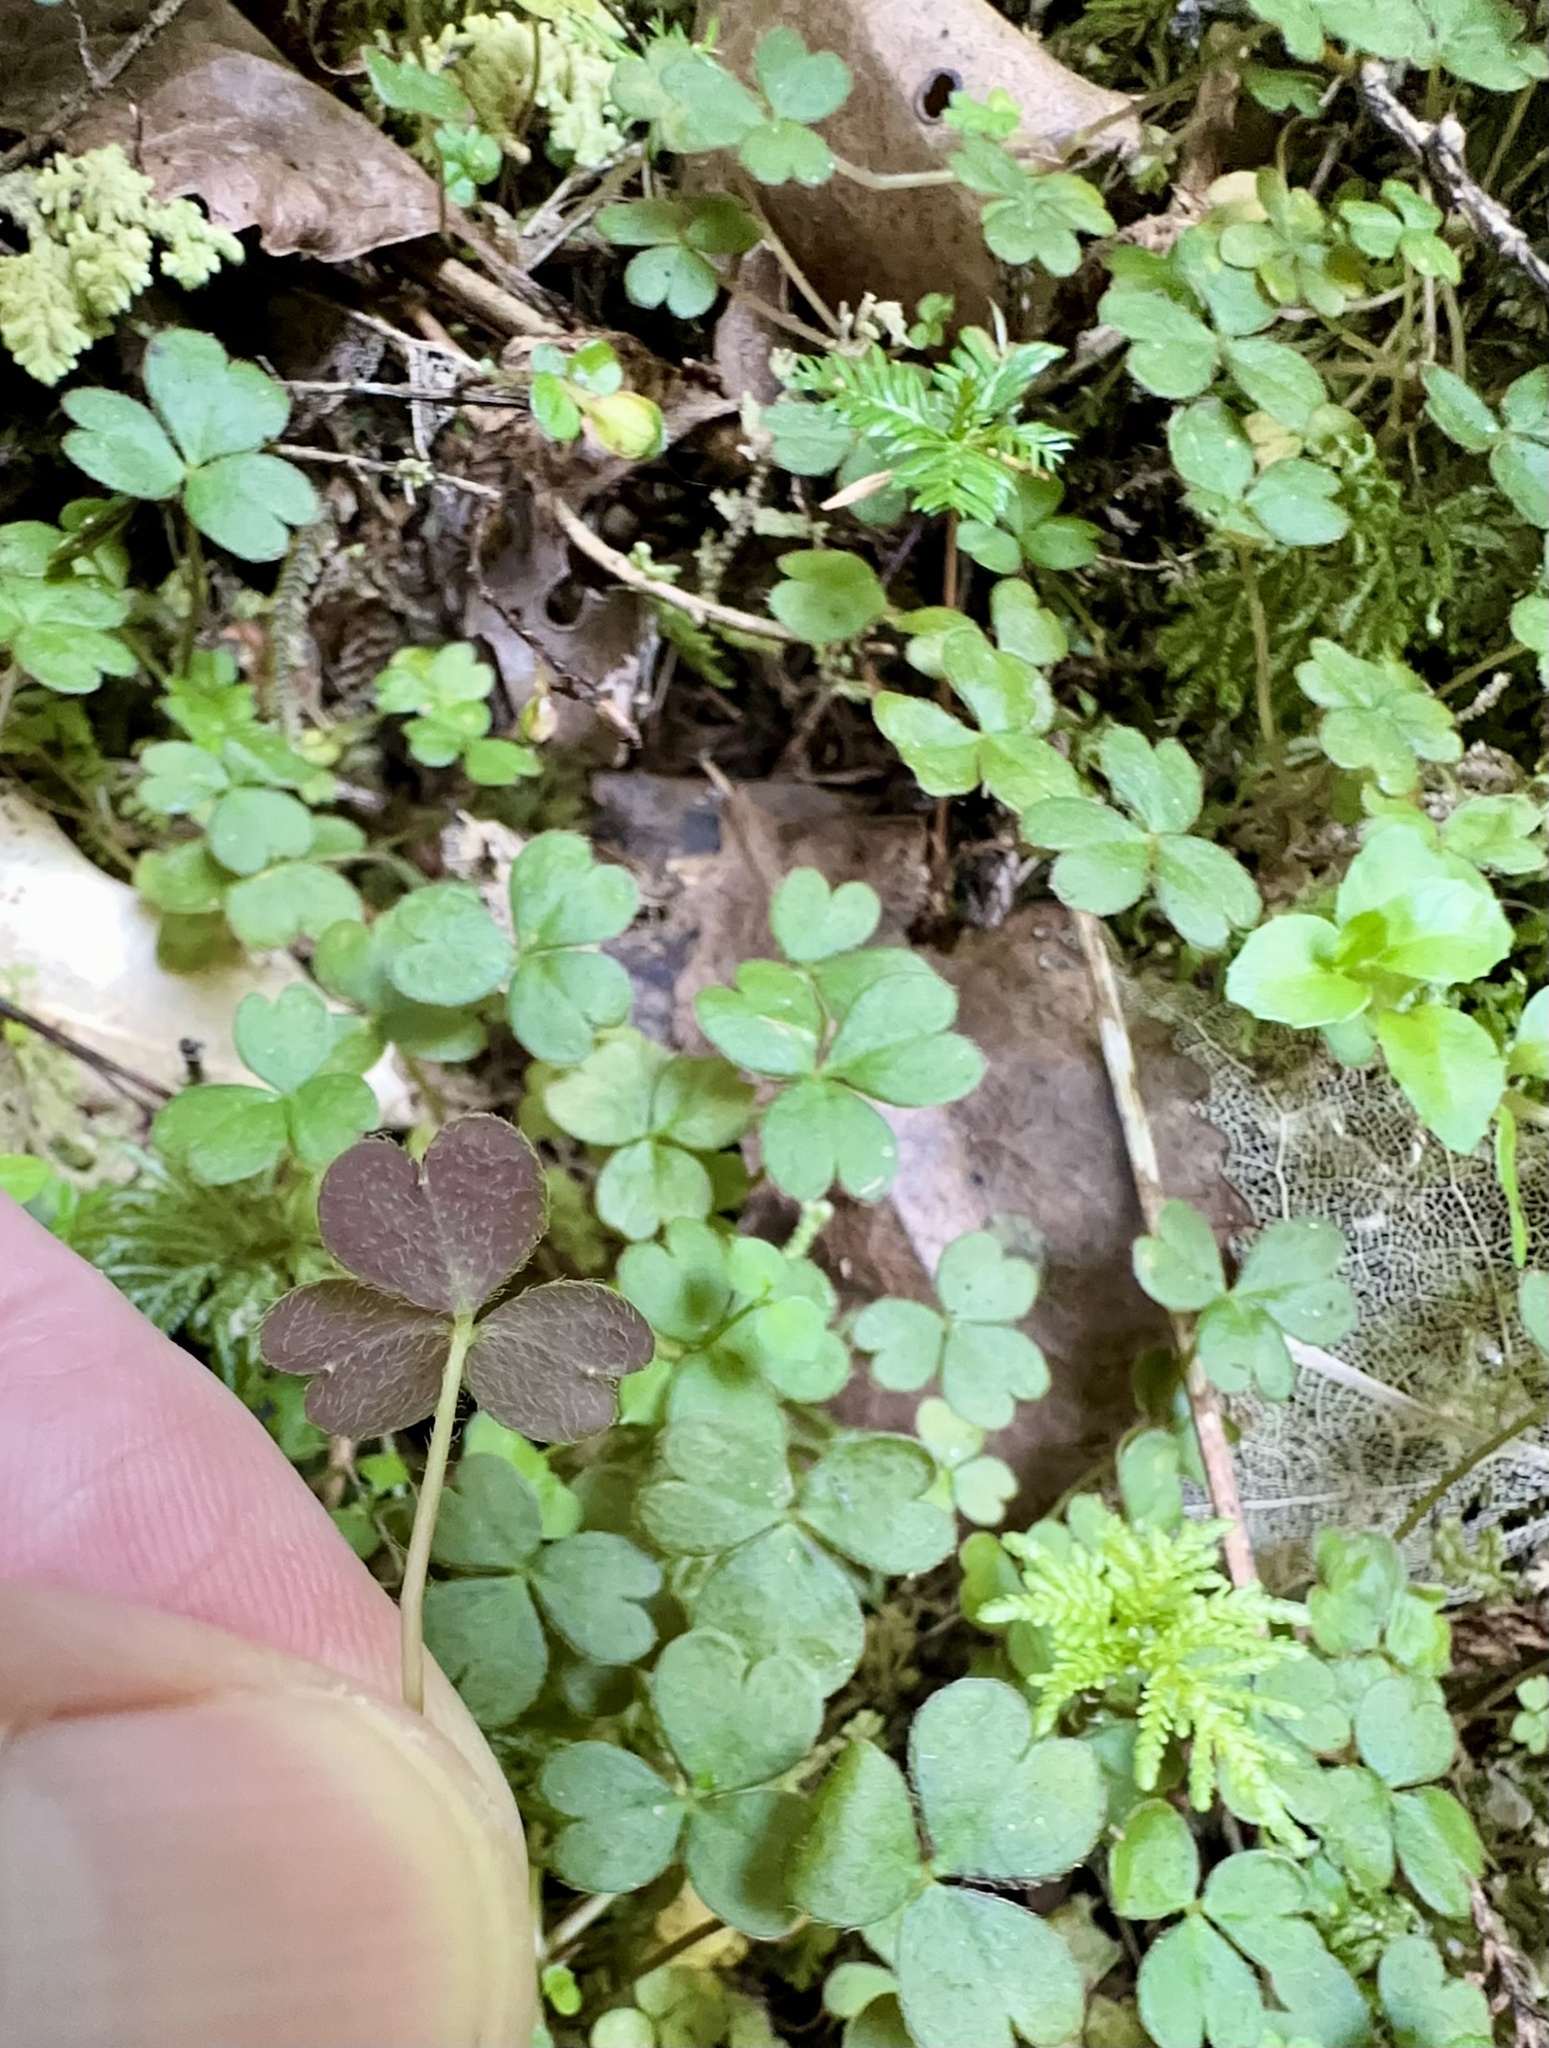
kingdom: Plantae
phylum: Tracheophyta
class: Magnoliopsida
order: Oxalidales
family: Oxalidaceae
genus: Oxalis
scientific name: Oxalis magellanica
